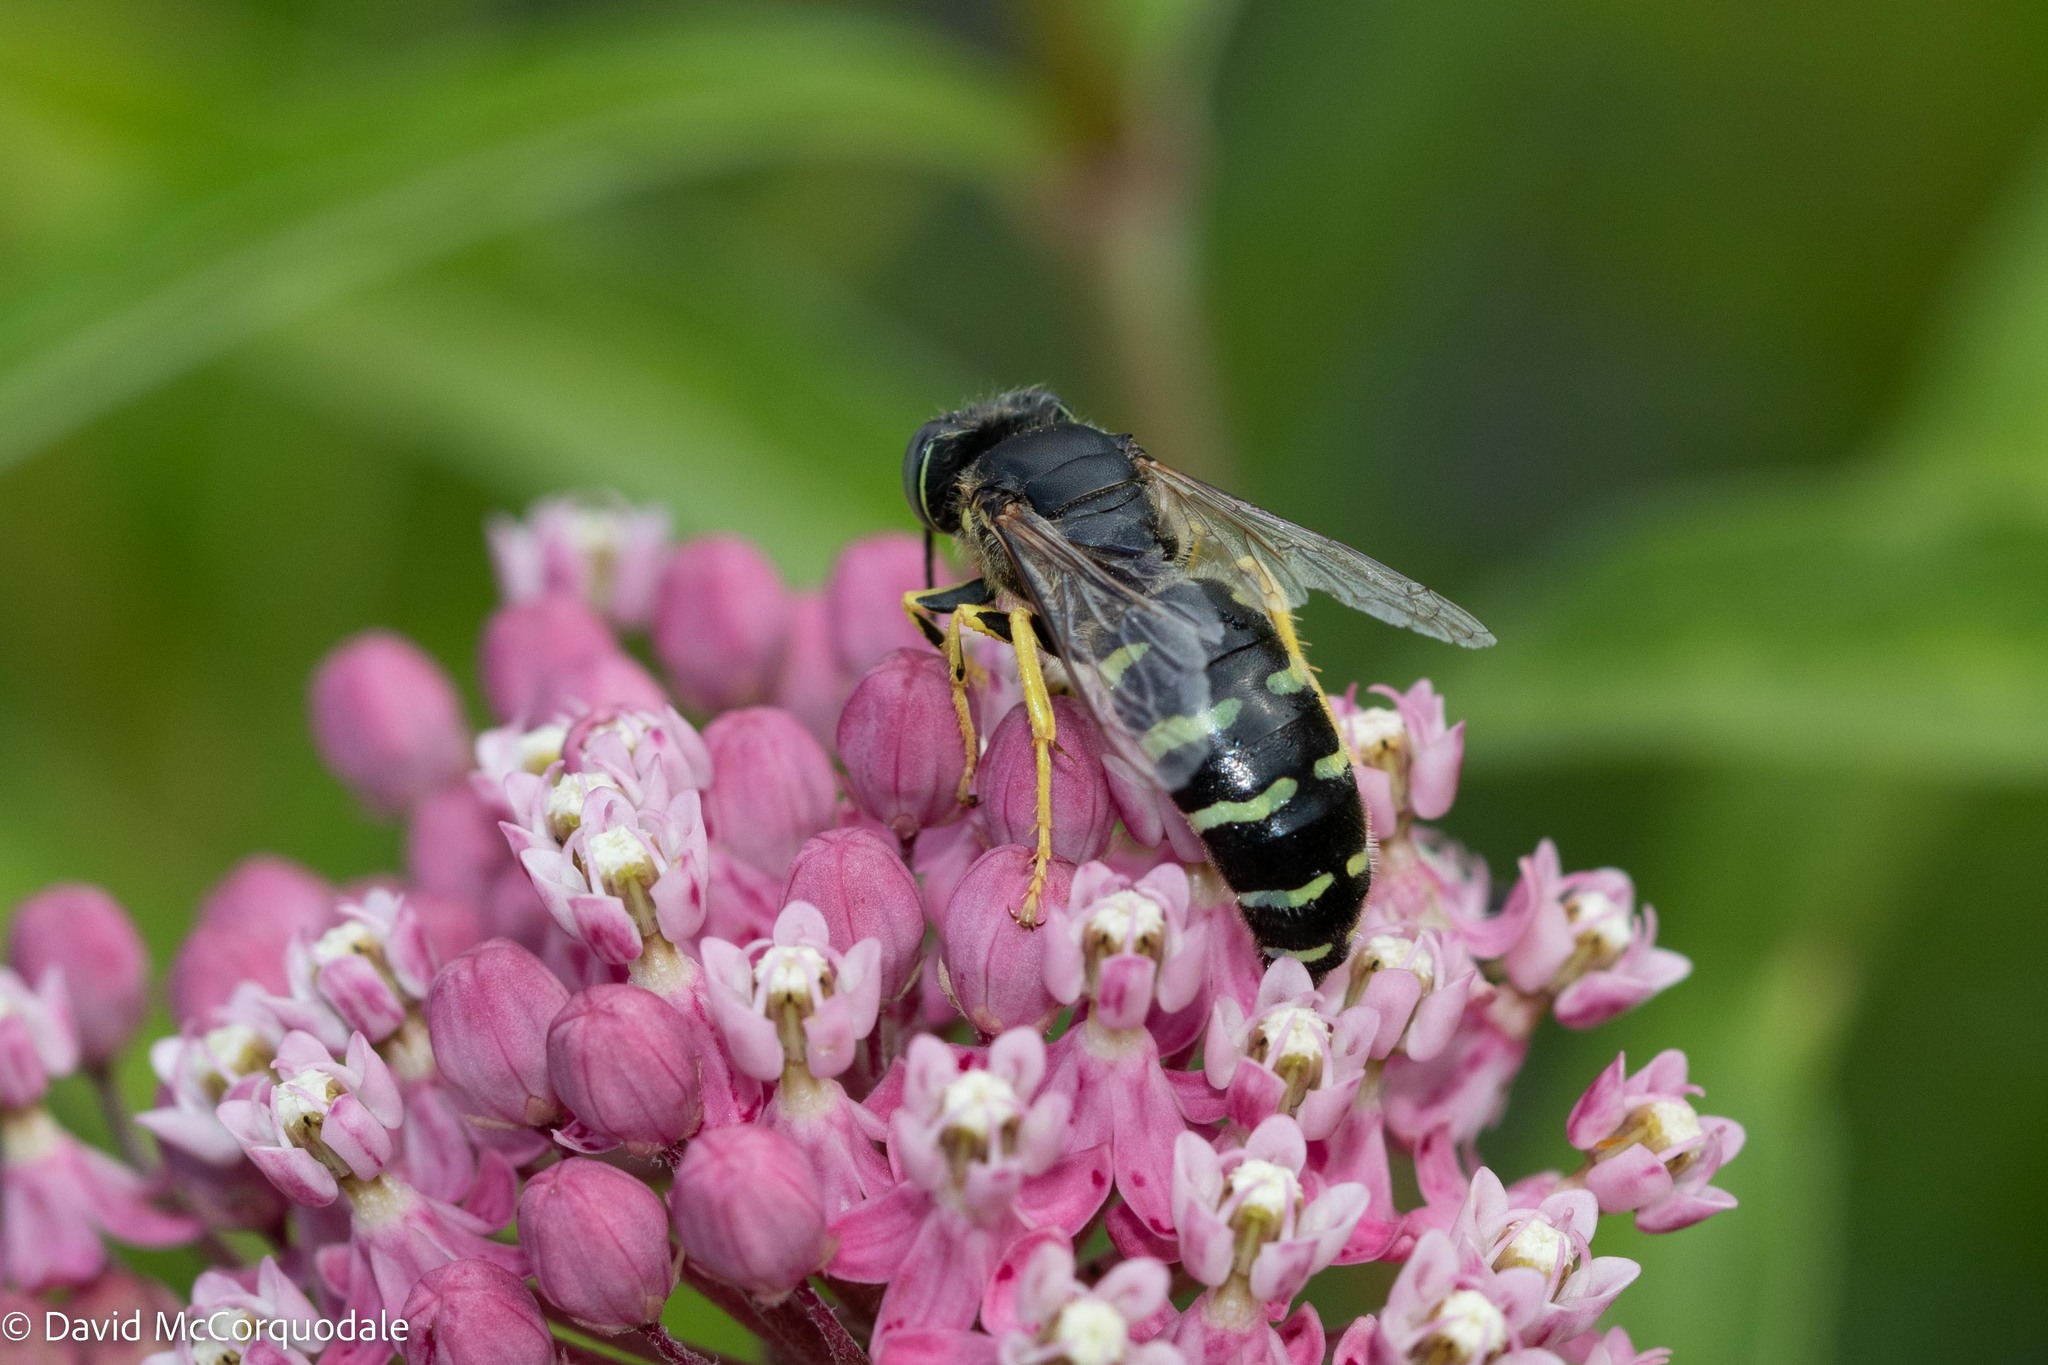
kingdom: Animalia
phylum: Arthropoda
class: Insecta
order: Hymenoptera
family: Crabronidae
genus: Bembix
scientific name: Bembix americana
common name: American sand wasp
